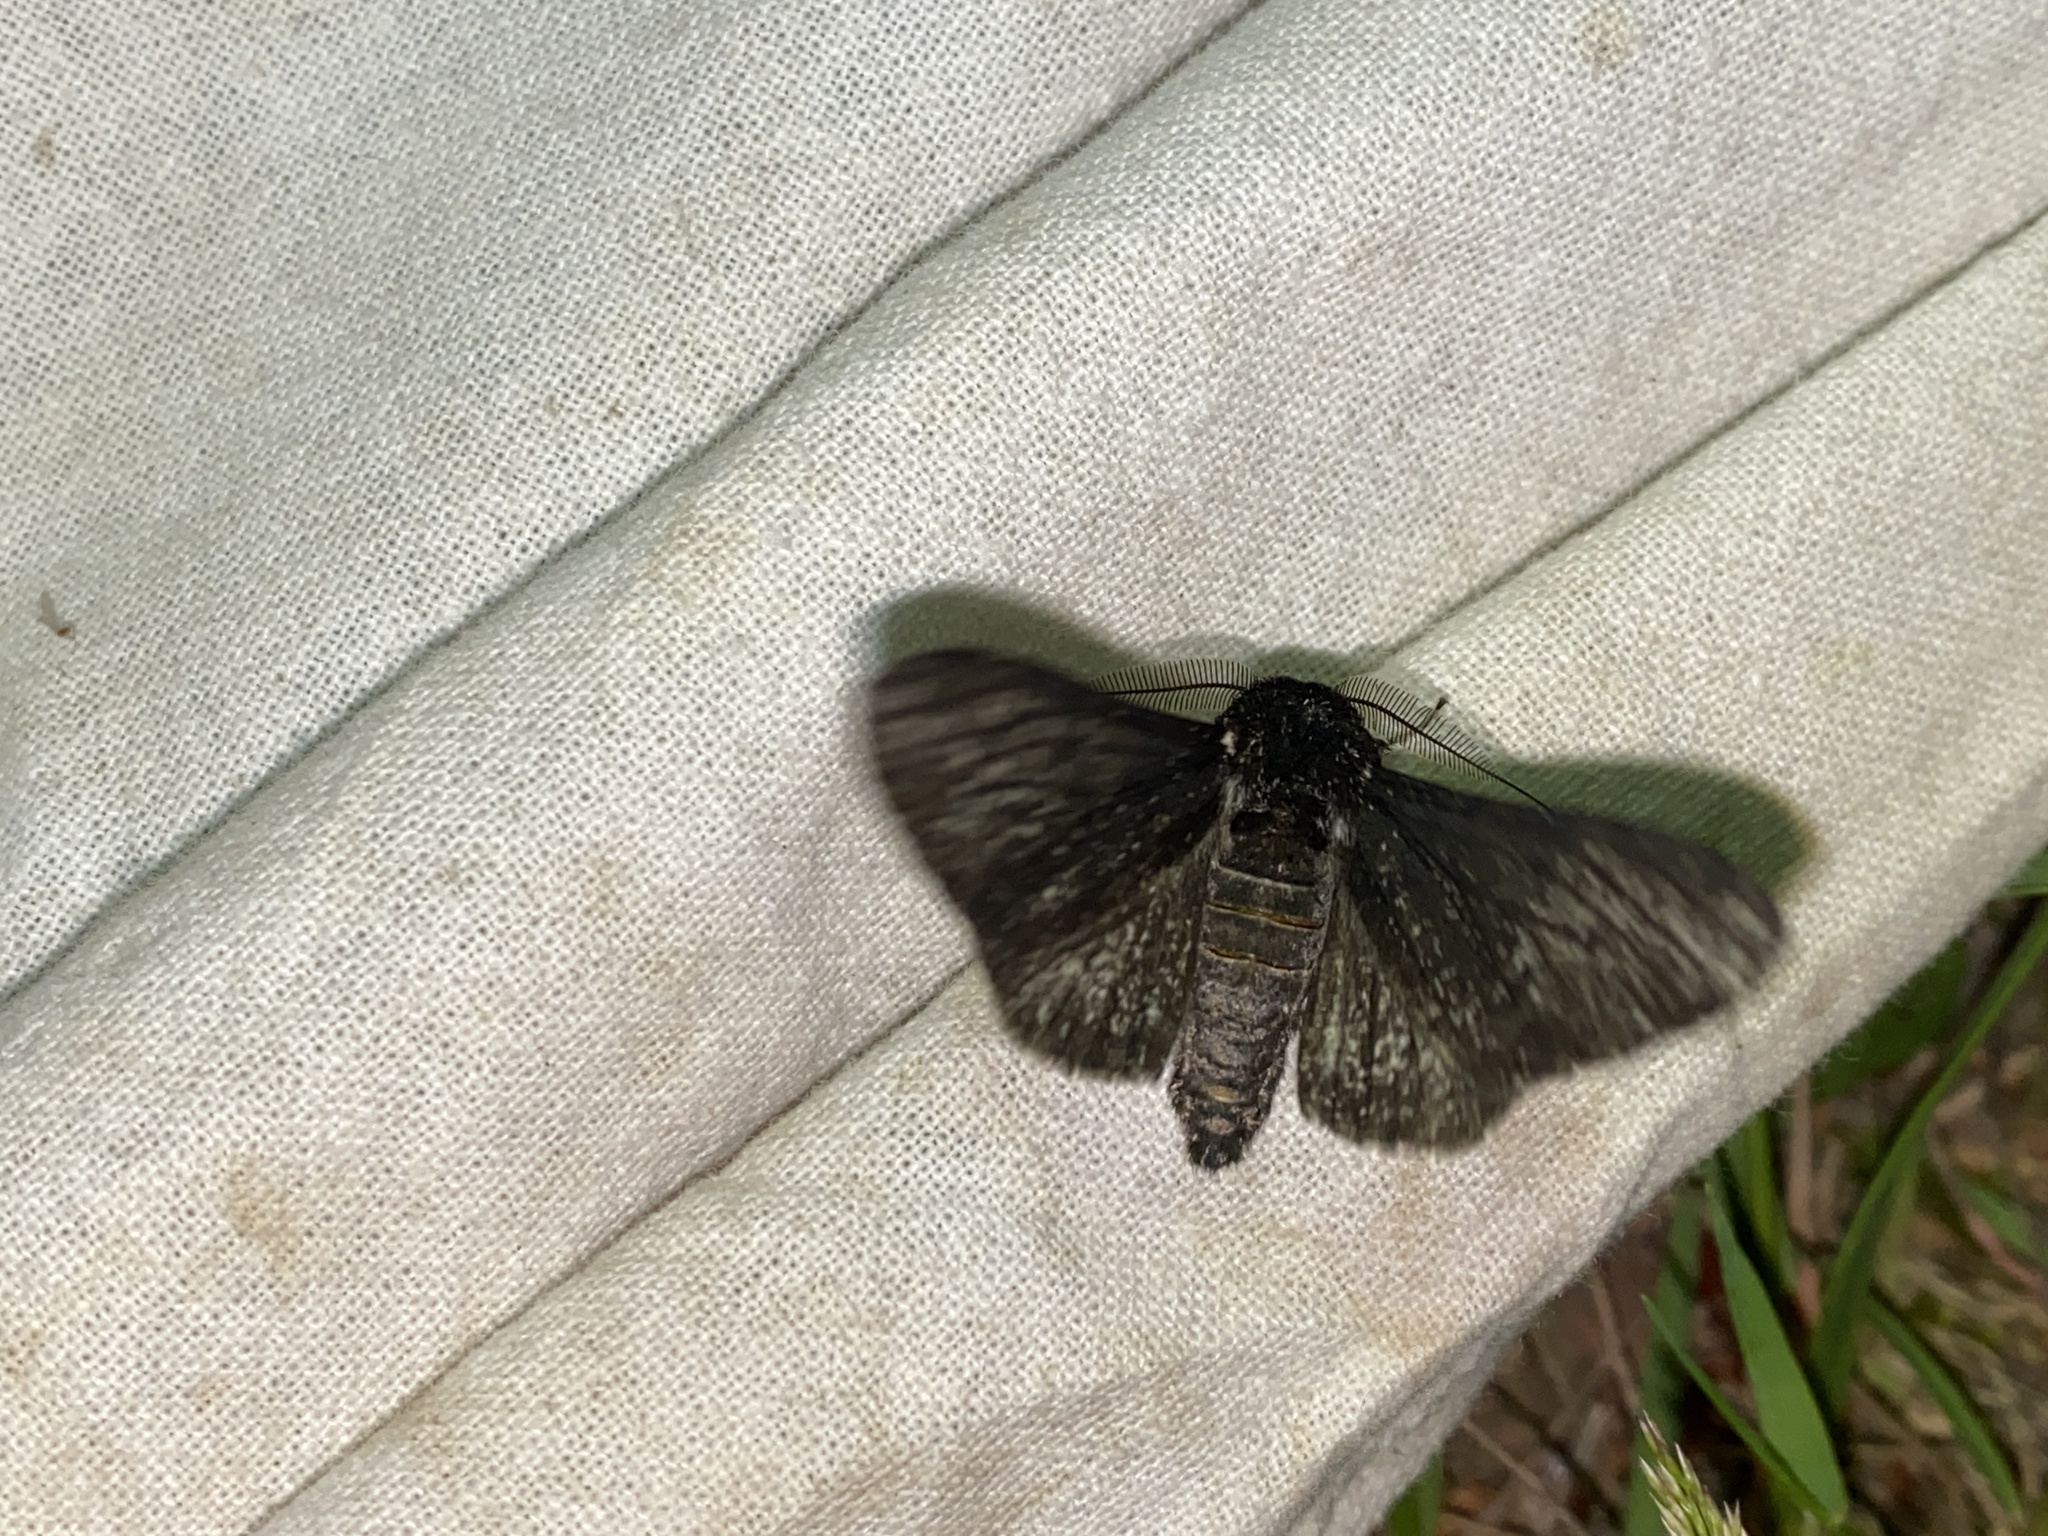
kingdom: Animalia
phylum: Arthropoda
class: Insecta
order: Lepidoptera
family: Geometridae
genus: Biston
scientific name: Biston betularia
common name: Peppered moth
